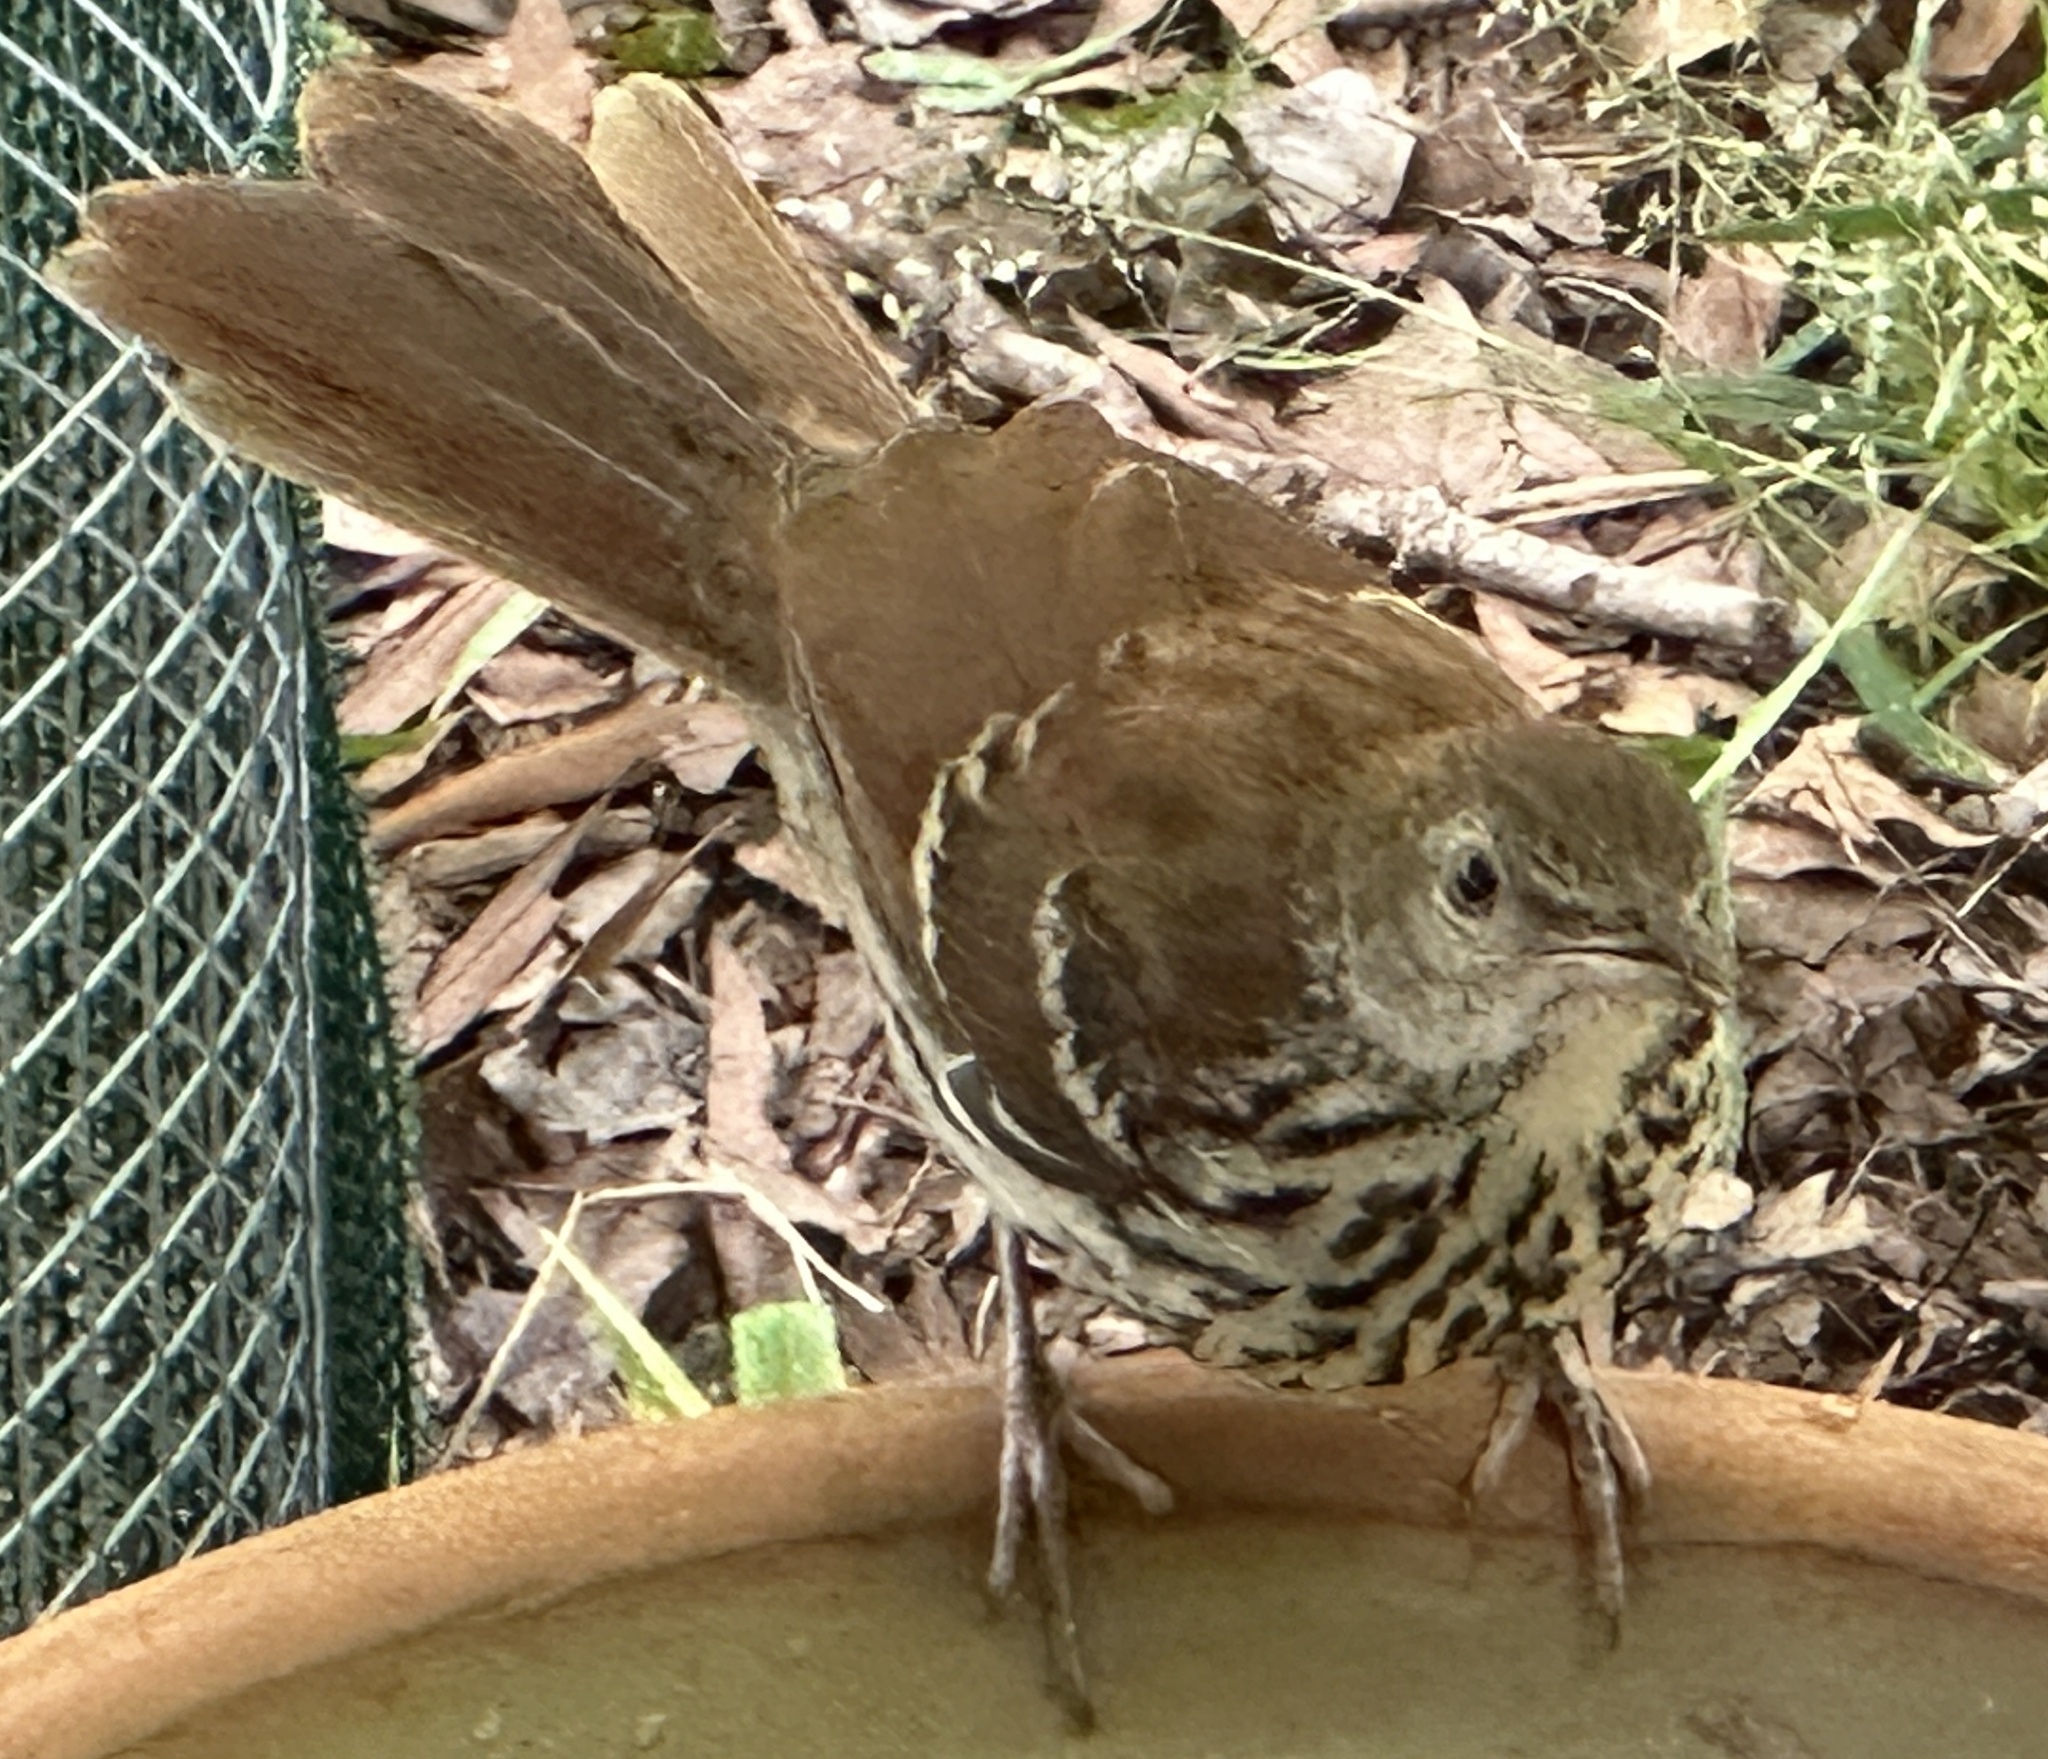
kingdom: Animalia
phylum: Chordata
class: Aves
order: Passeriformes
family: Mimidae
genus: Toxostoma
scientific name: Toxostoma rufum
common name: Brown thrasher
